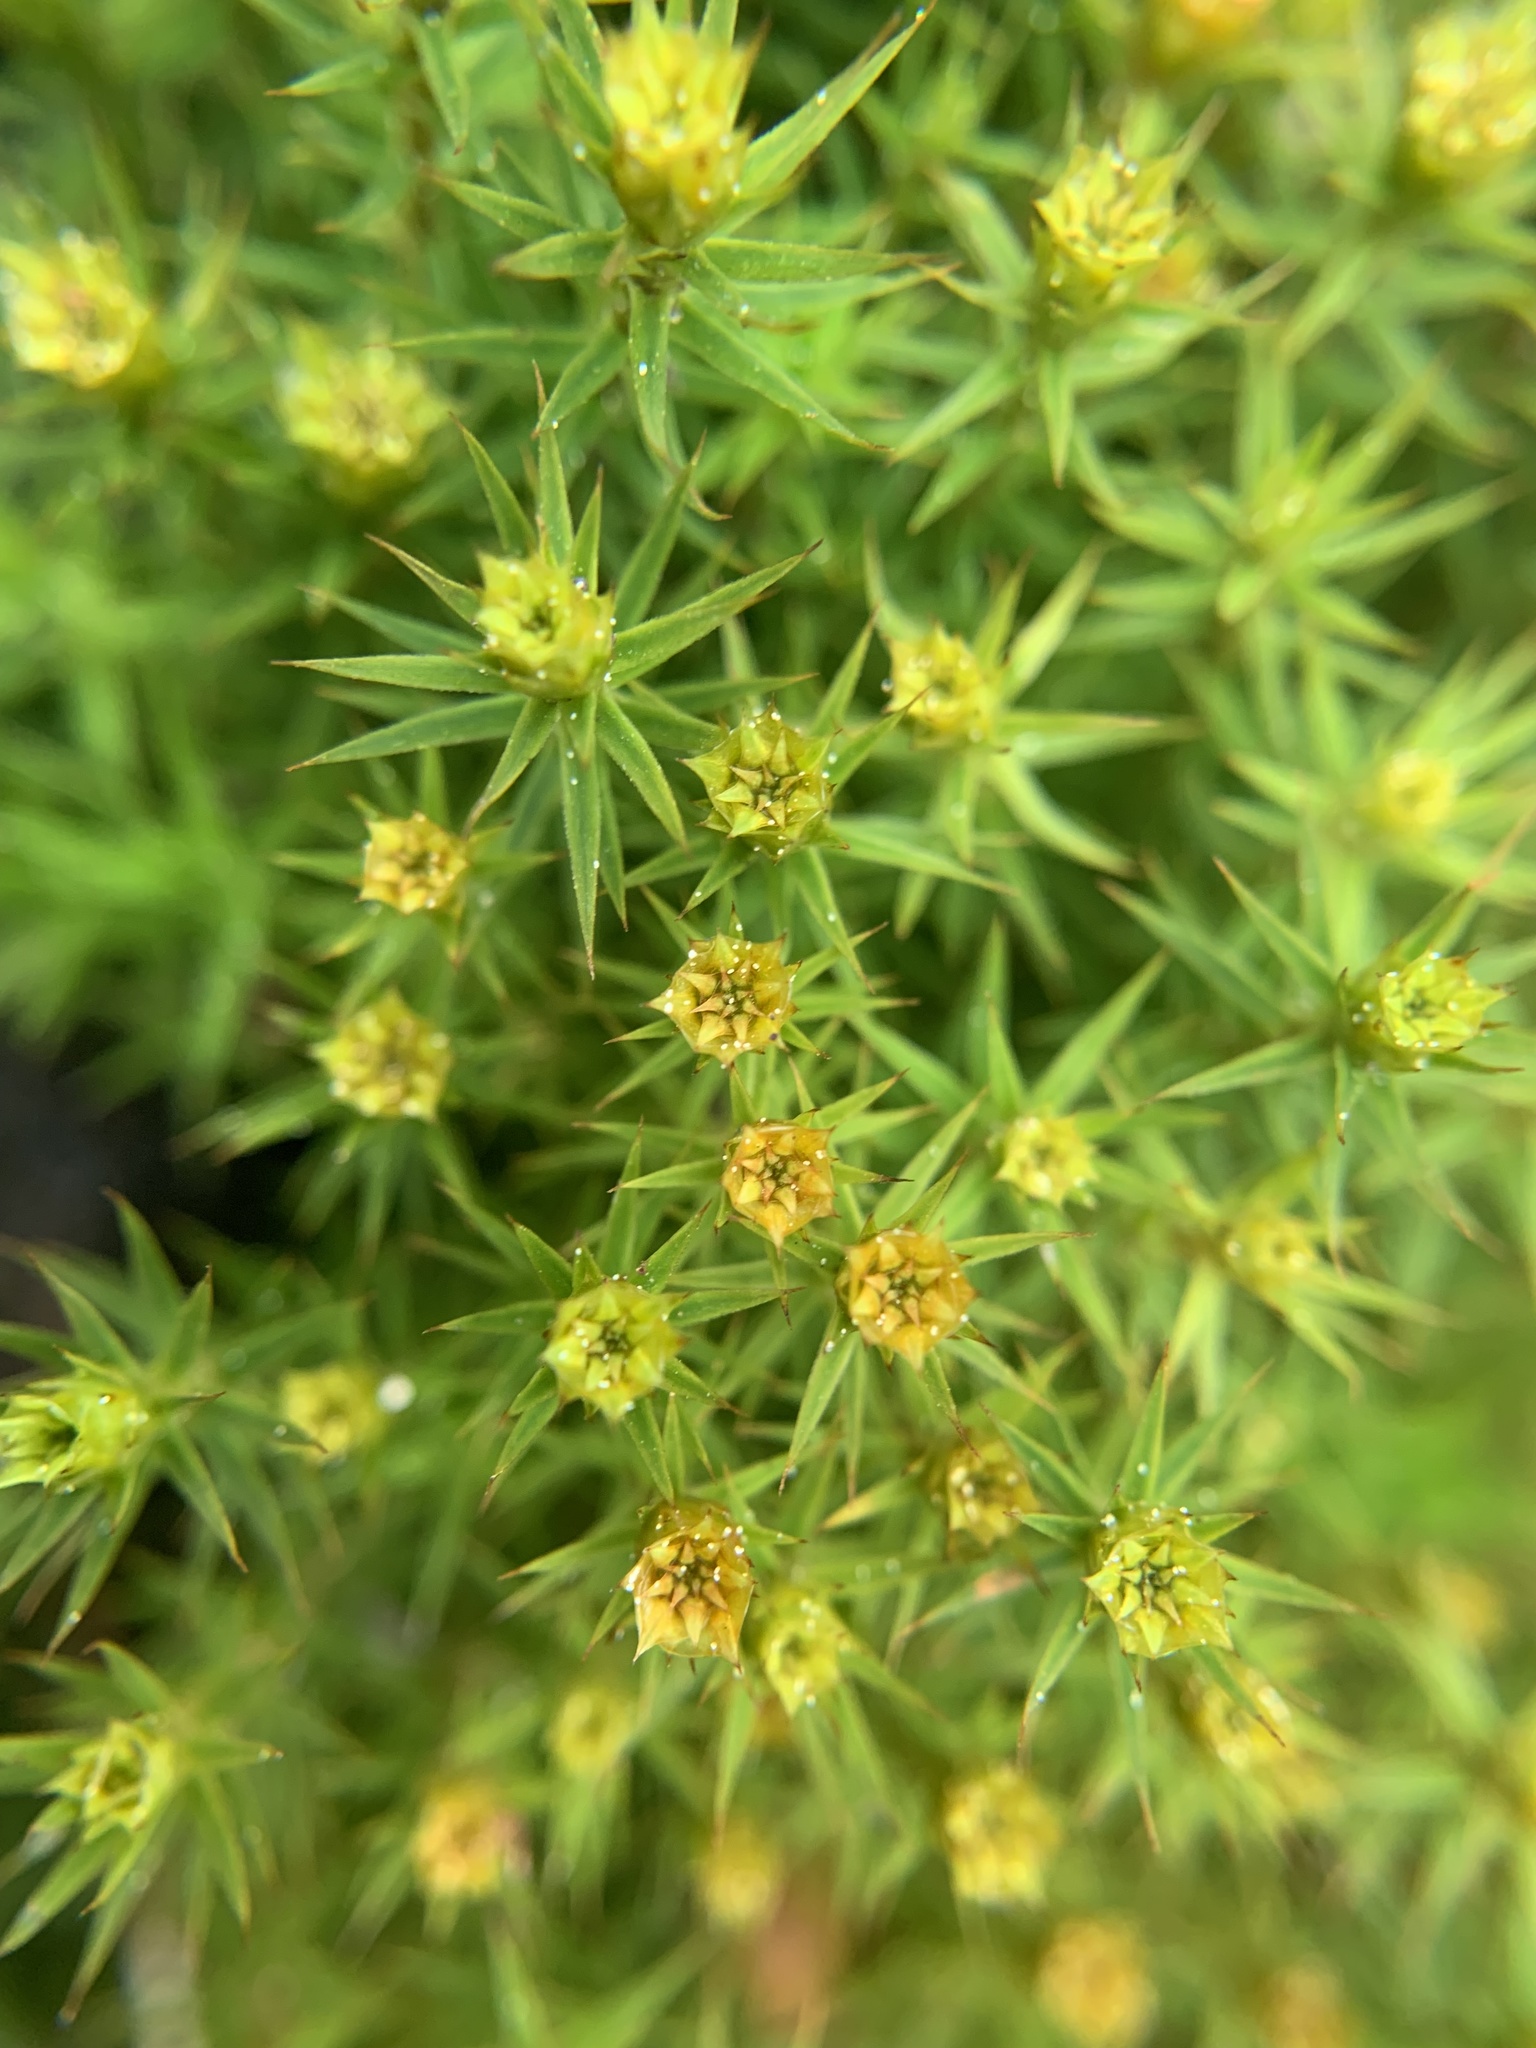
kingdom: Plantae
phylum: Bryophyta
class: Polytrichopsida
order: Polytrichales
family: Polytrichaceae
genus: Polytrichum
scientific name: Polytrichum formosum
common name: Bank haircap moss
